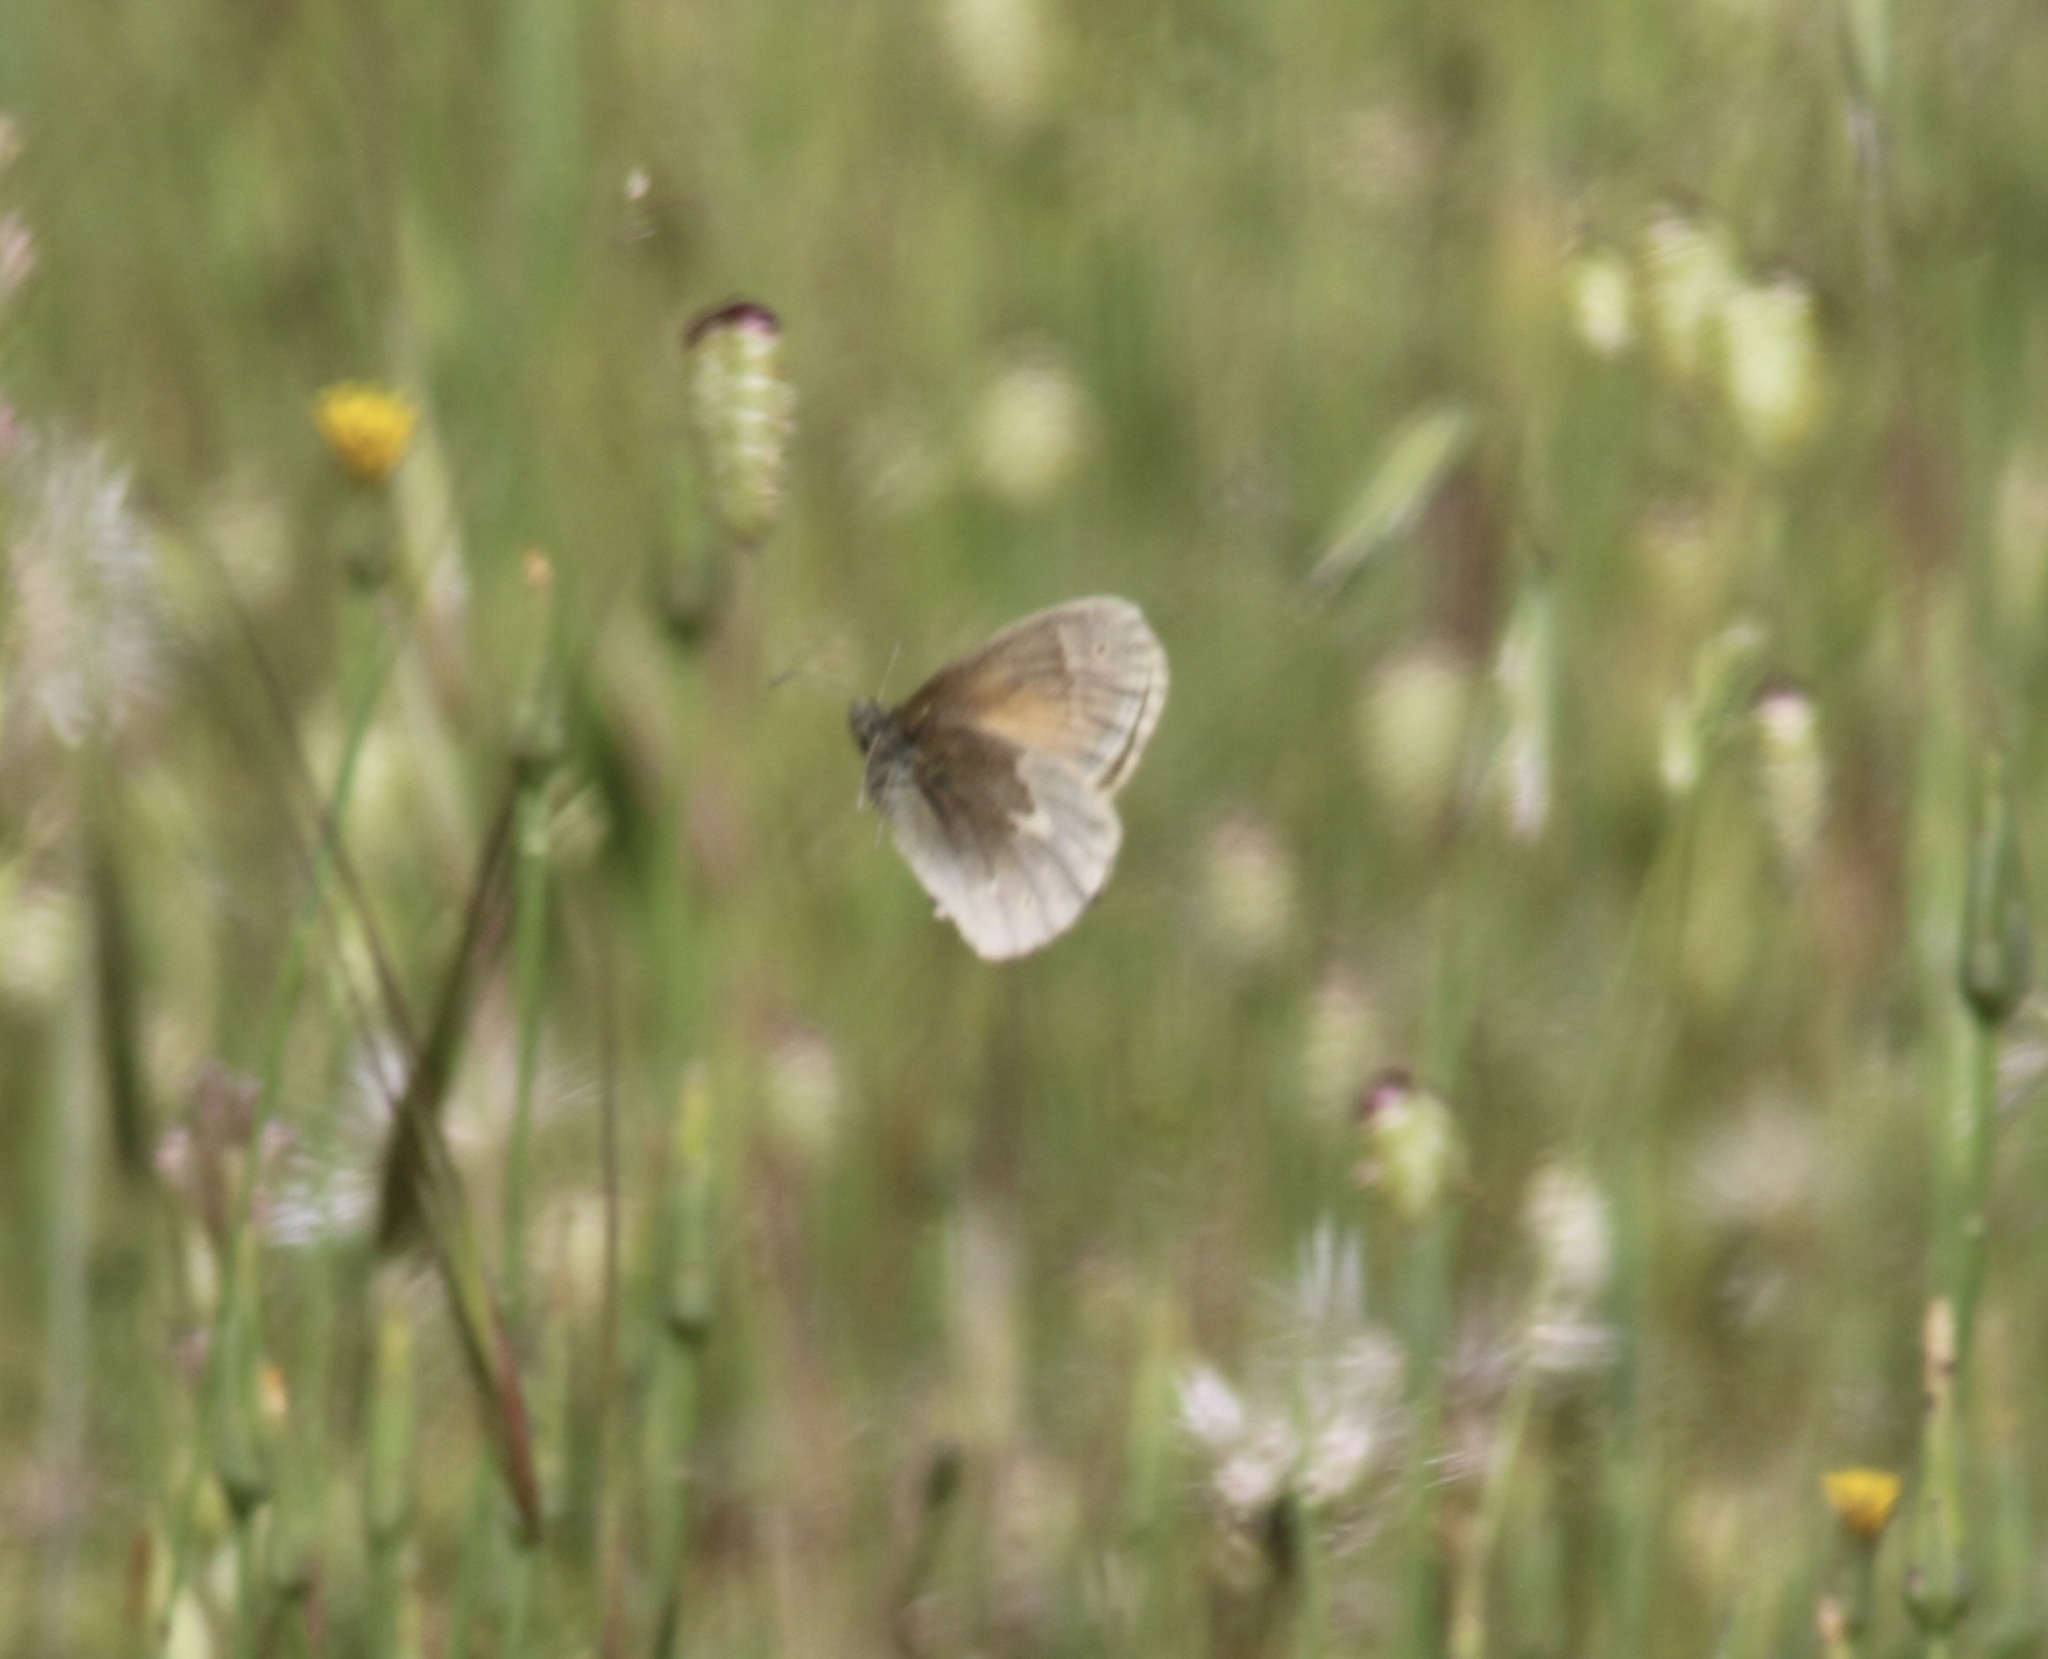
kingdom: Animalia
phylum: Arthropoda
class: Insecta
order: Lepidoptera
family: Nymphalidae
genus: Coenonympha
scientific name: Coenonympha california
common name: Common ringlet
